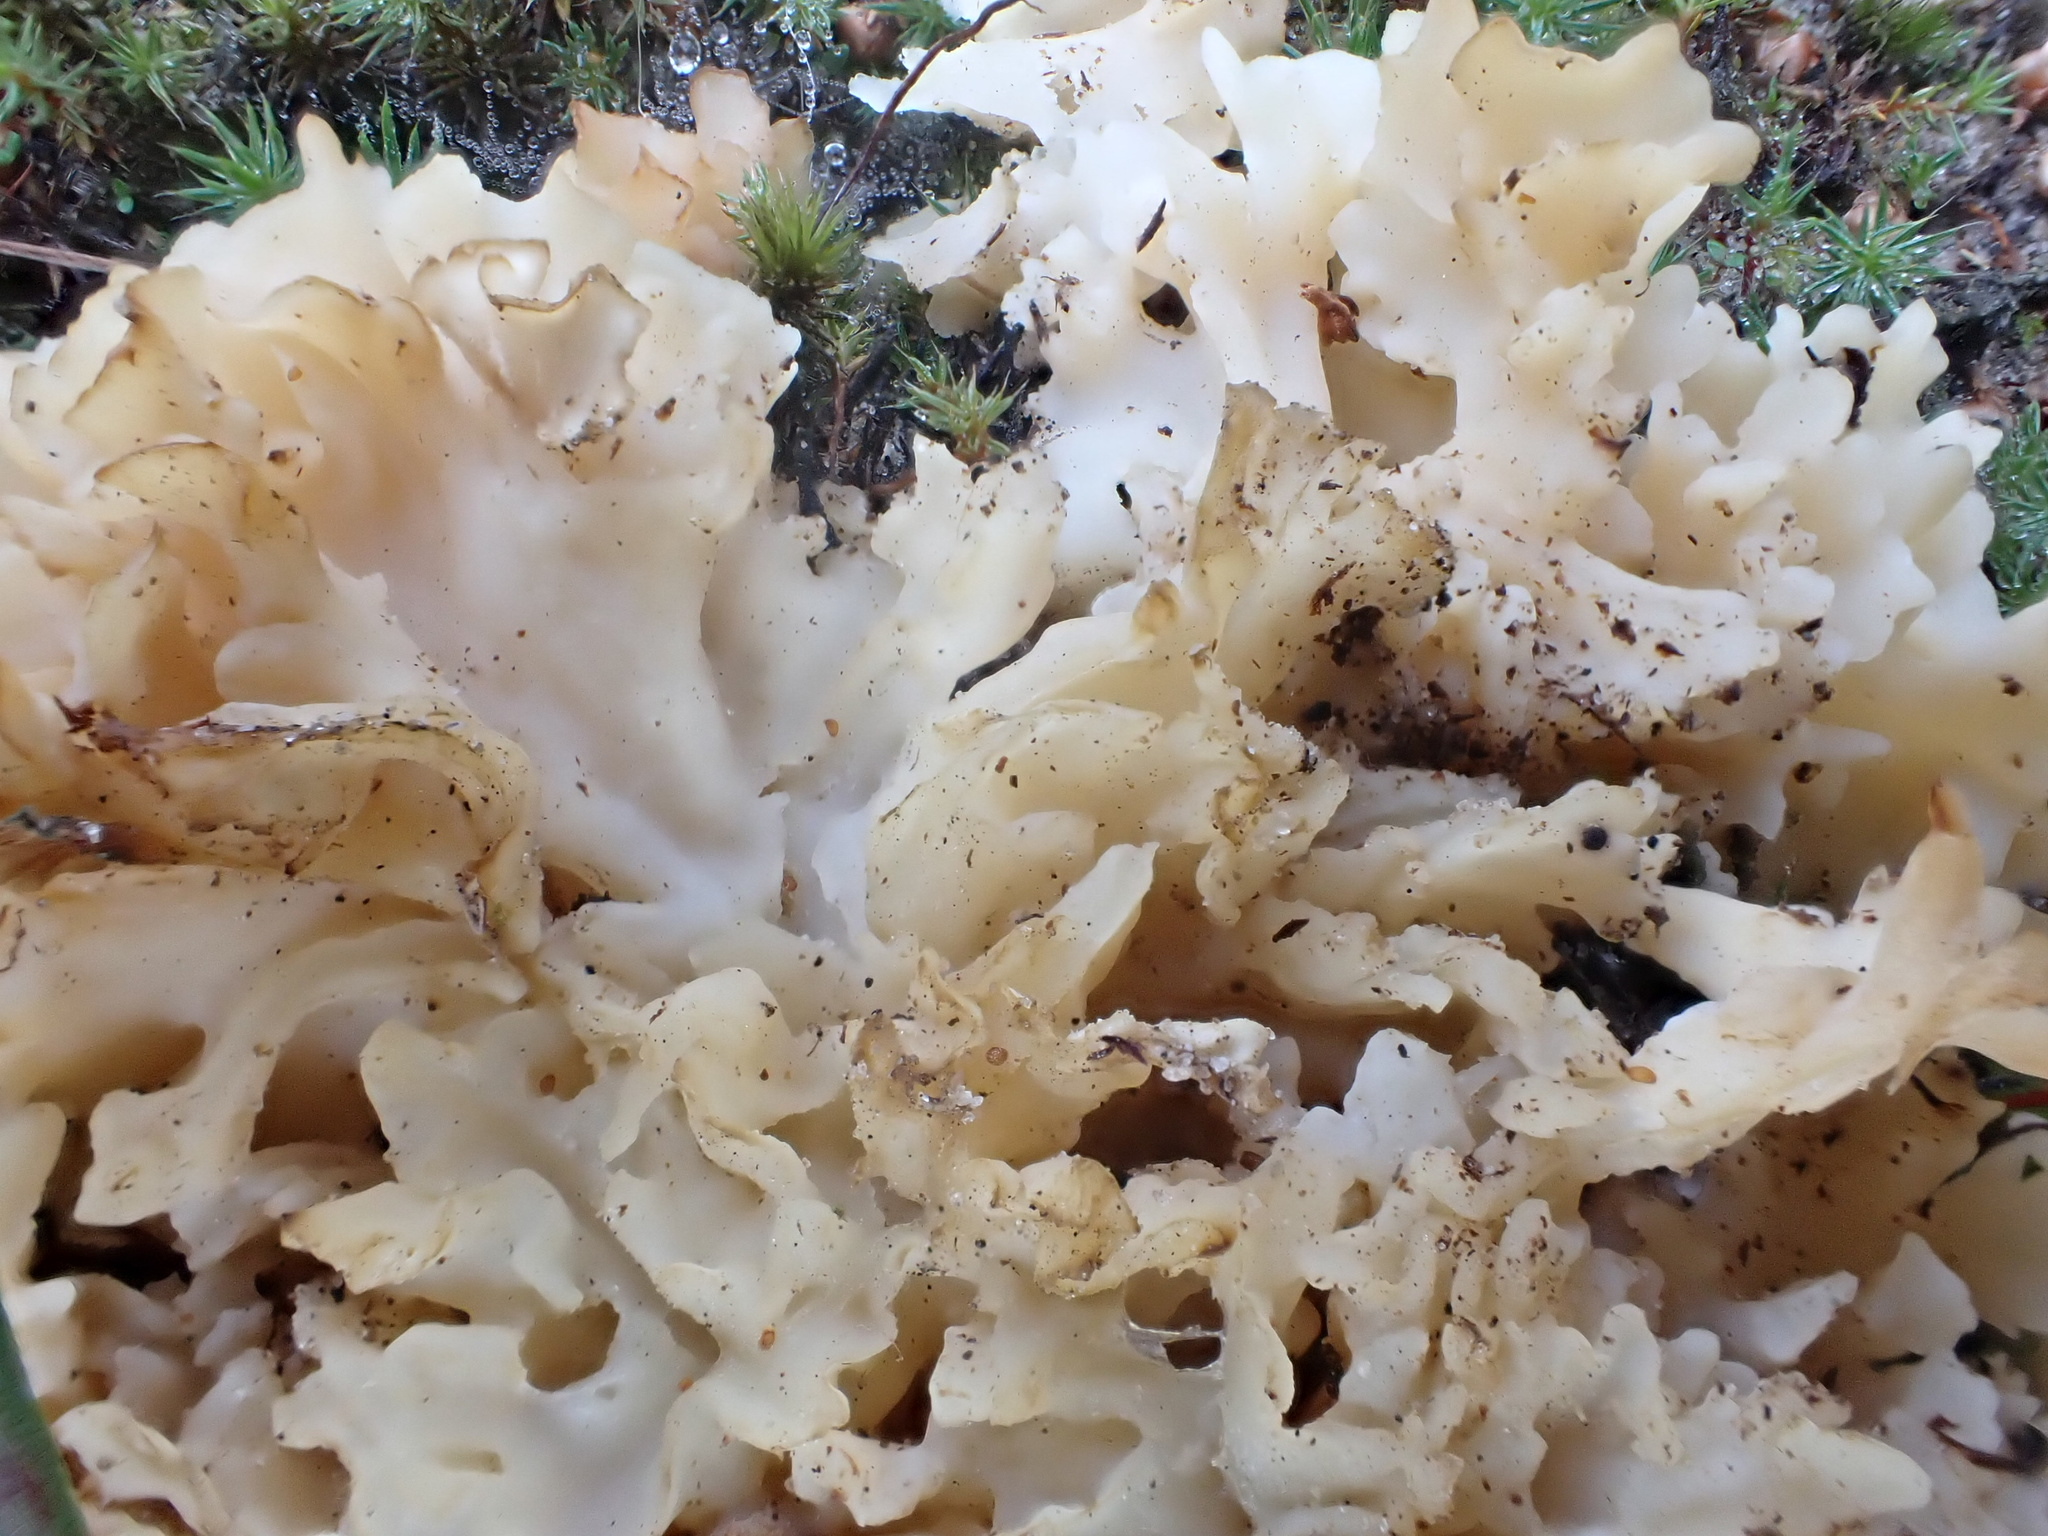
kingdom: Fungi
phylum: Basidiomycota
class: Agaricomycetes
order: Polyporales
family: Sparassidaceae
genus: Sparassis
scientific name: Sparassis crispa
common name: Brain fungus
